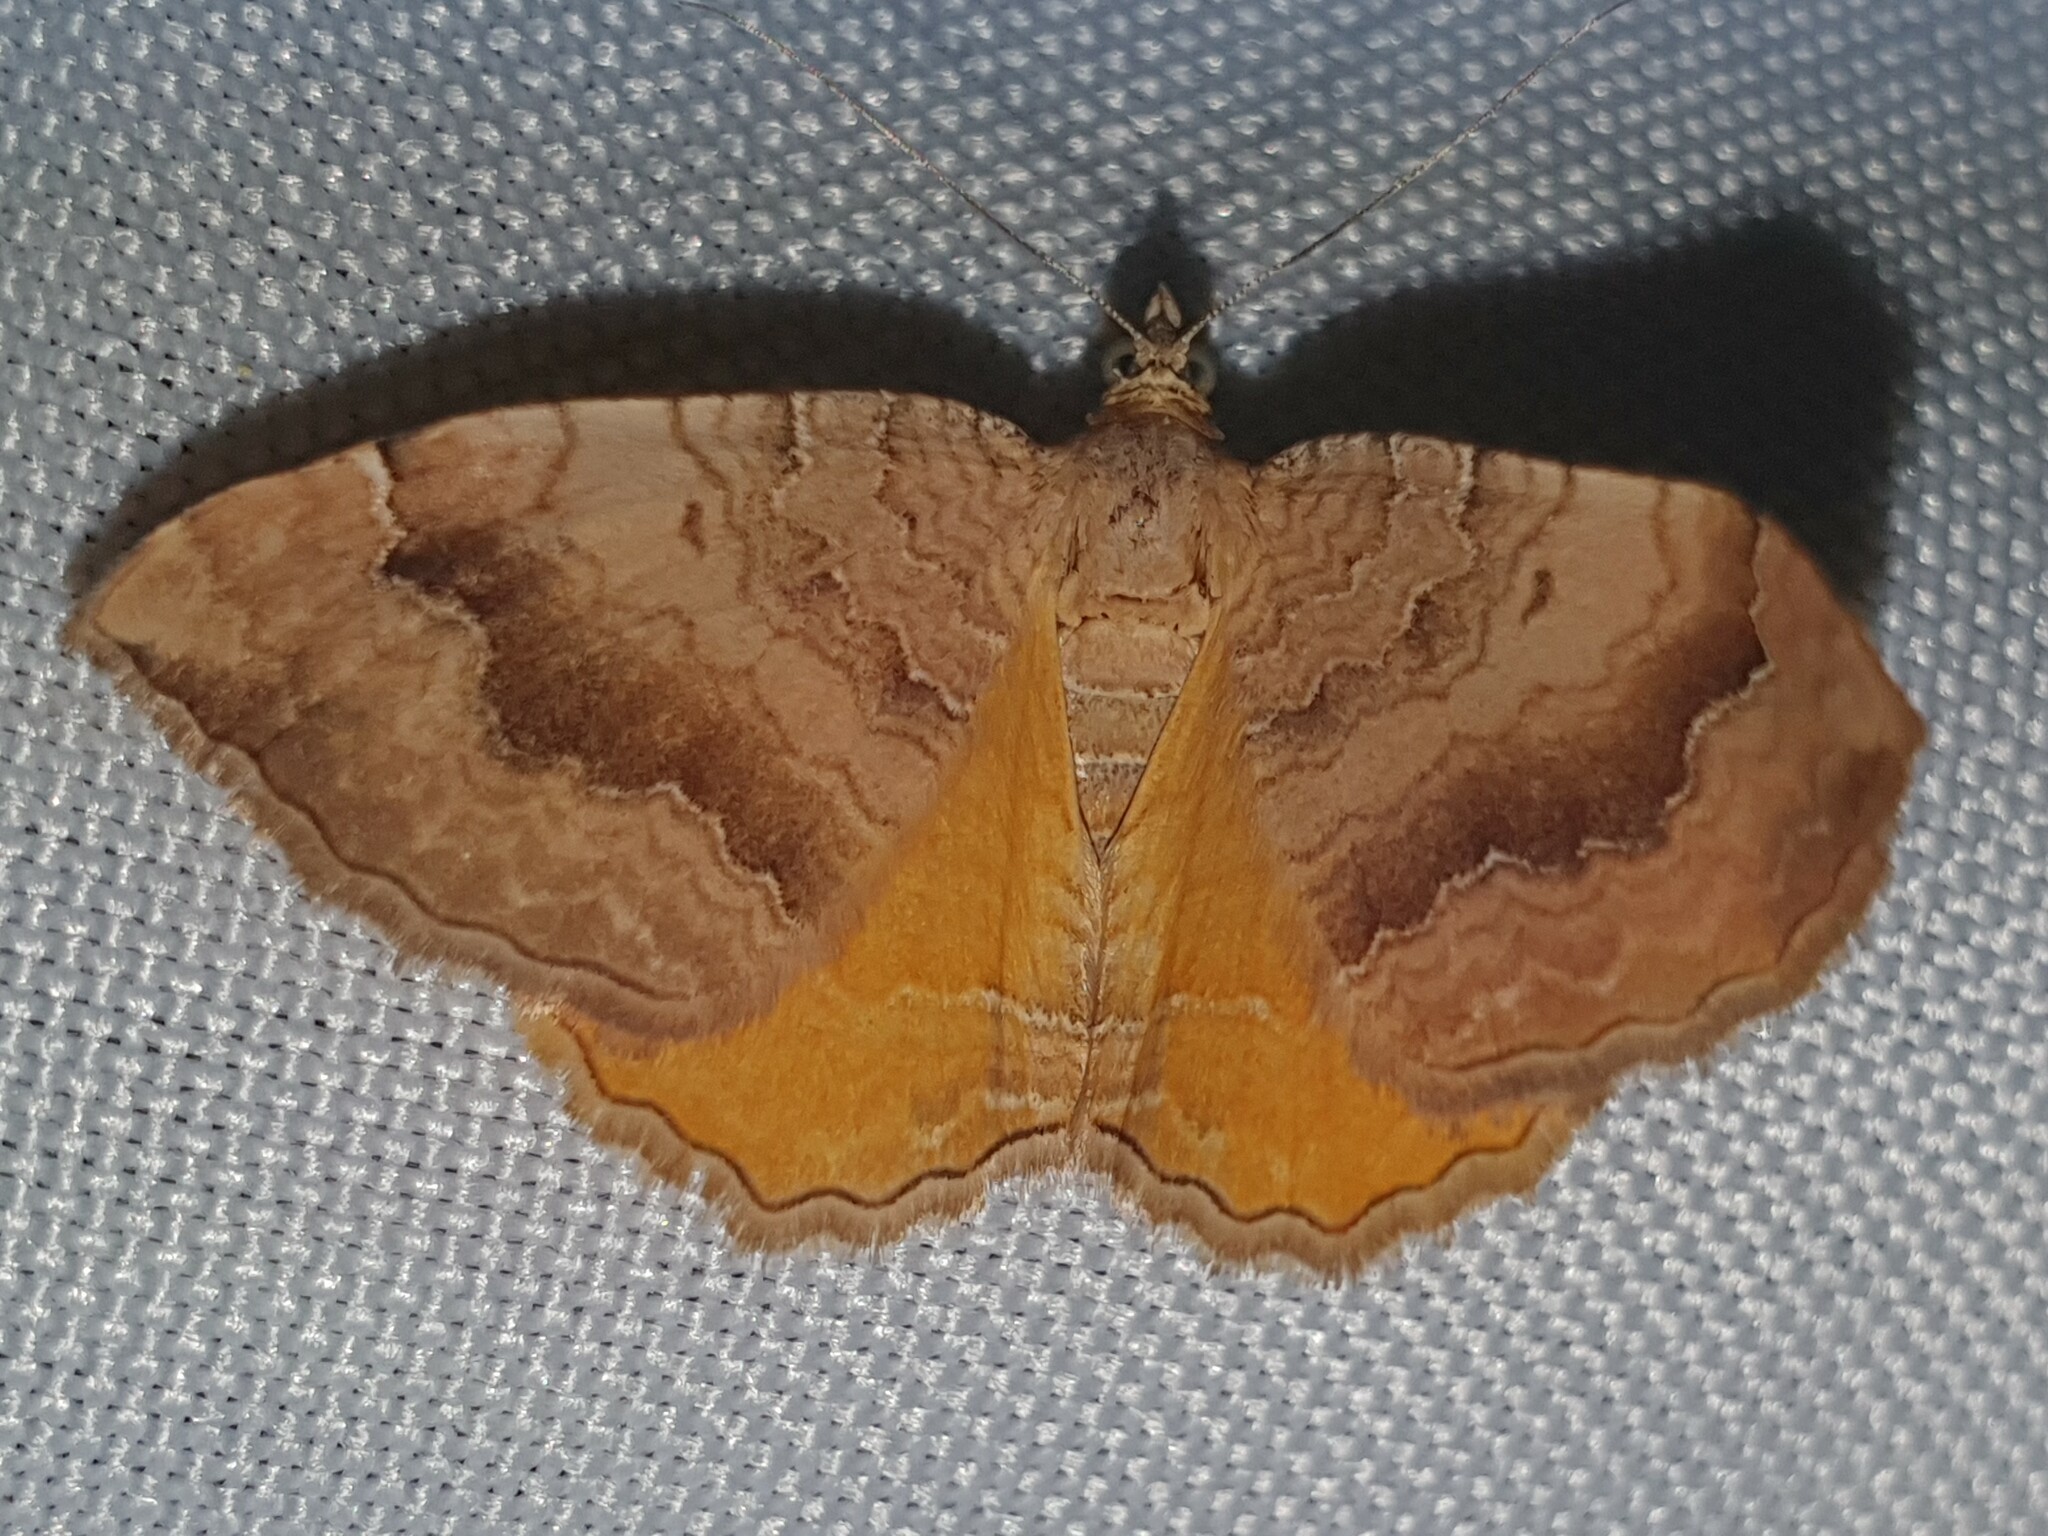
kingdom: Animalia
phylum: Arthropoda
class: Insecta
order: Lepidoptera
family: Geometridae
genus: Camptogramma
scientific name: Camptogramma bilineata
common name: Yellow shell
